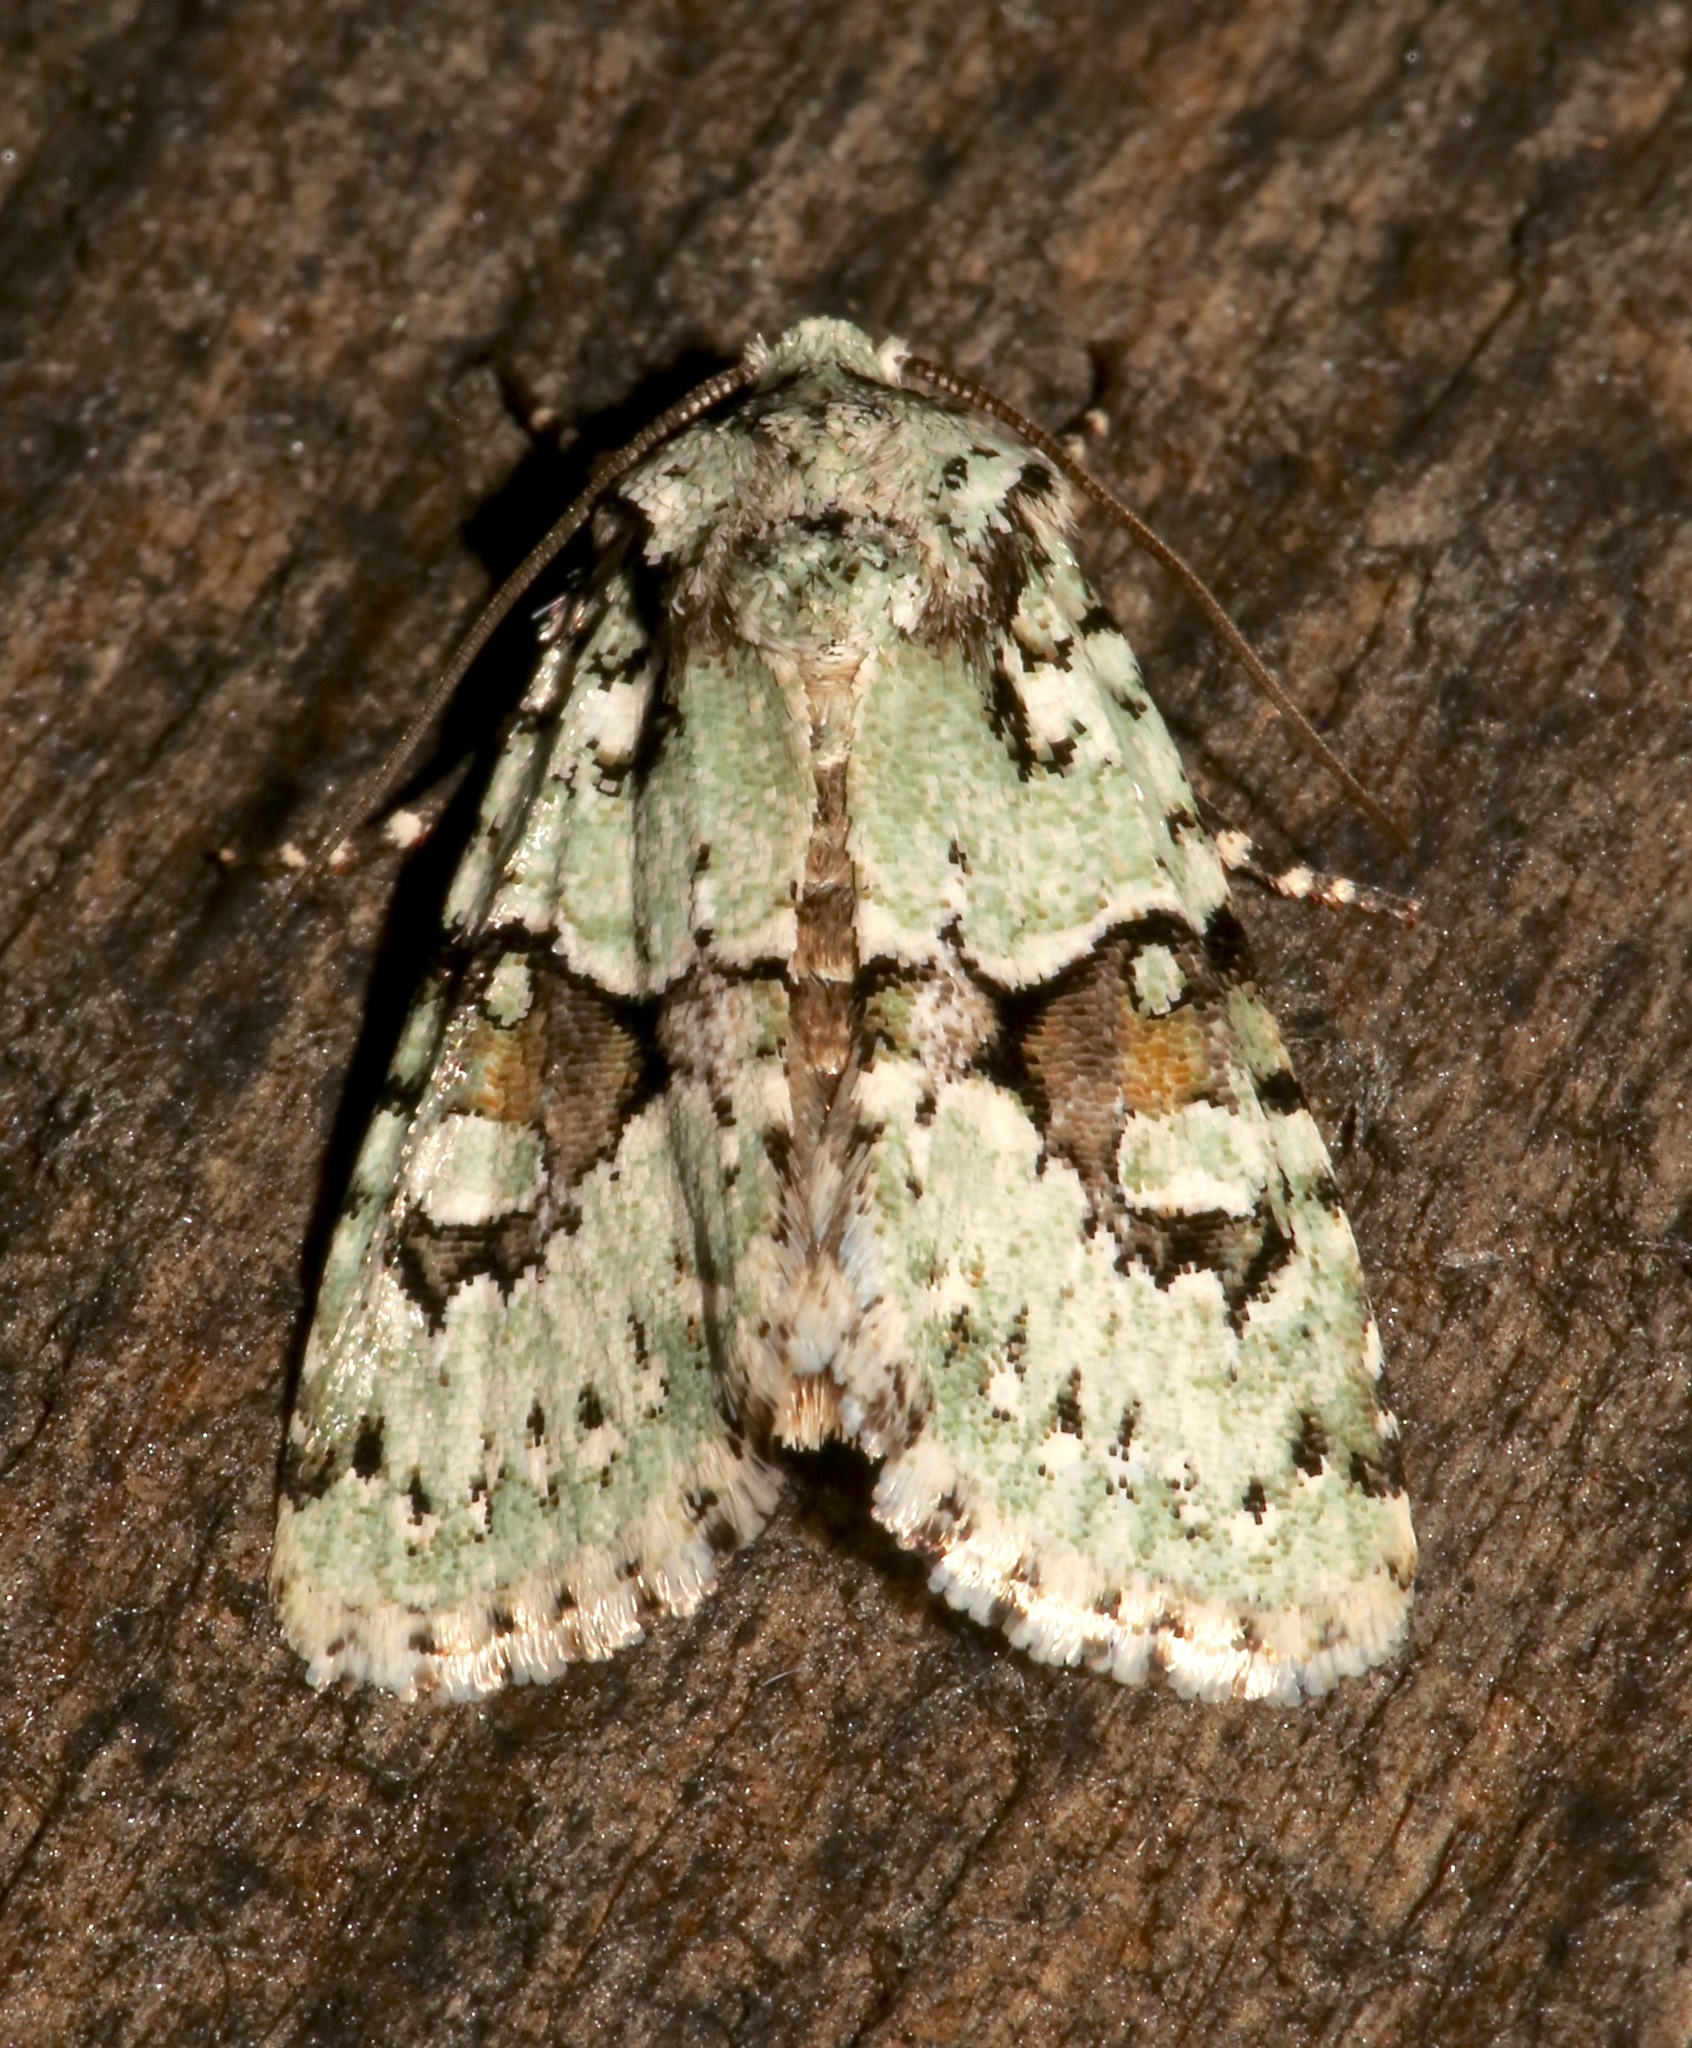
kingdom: Animalia
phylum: Arthropoda
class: Insecta
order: Lepidoptera
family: Noctuidae
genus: Lacinipolia
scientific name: Lacinipolia implicata
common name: Implicit arches
